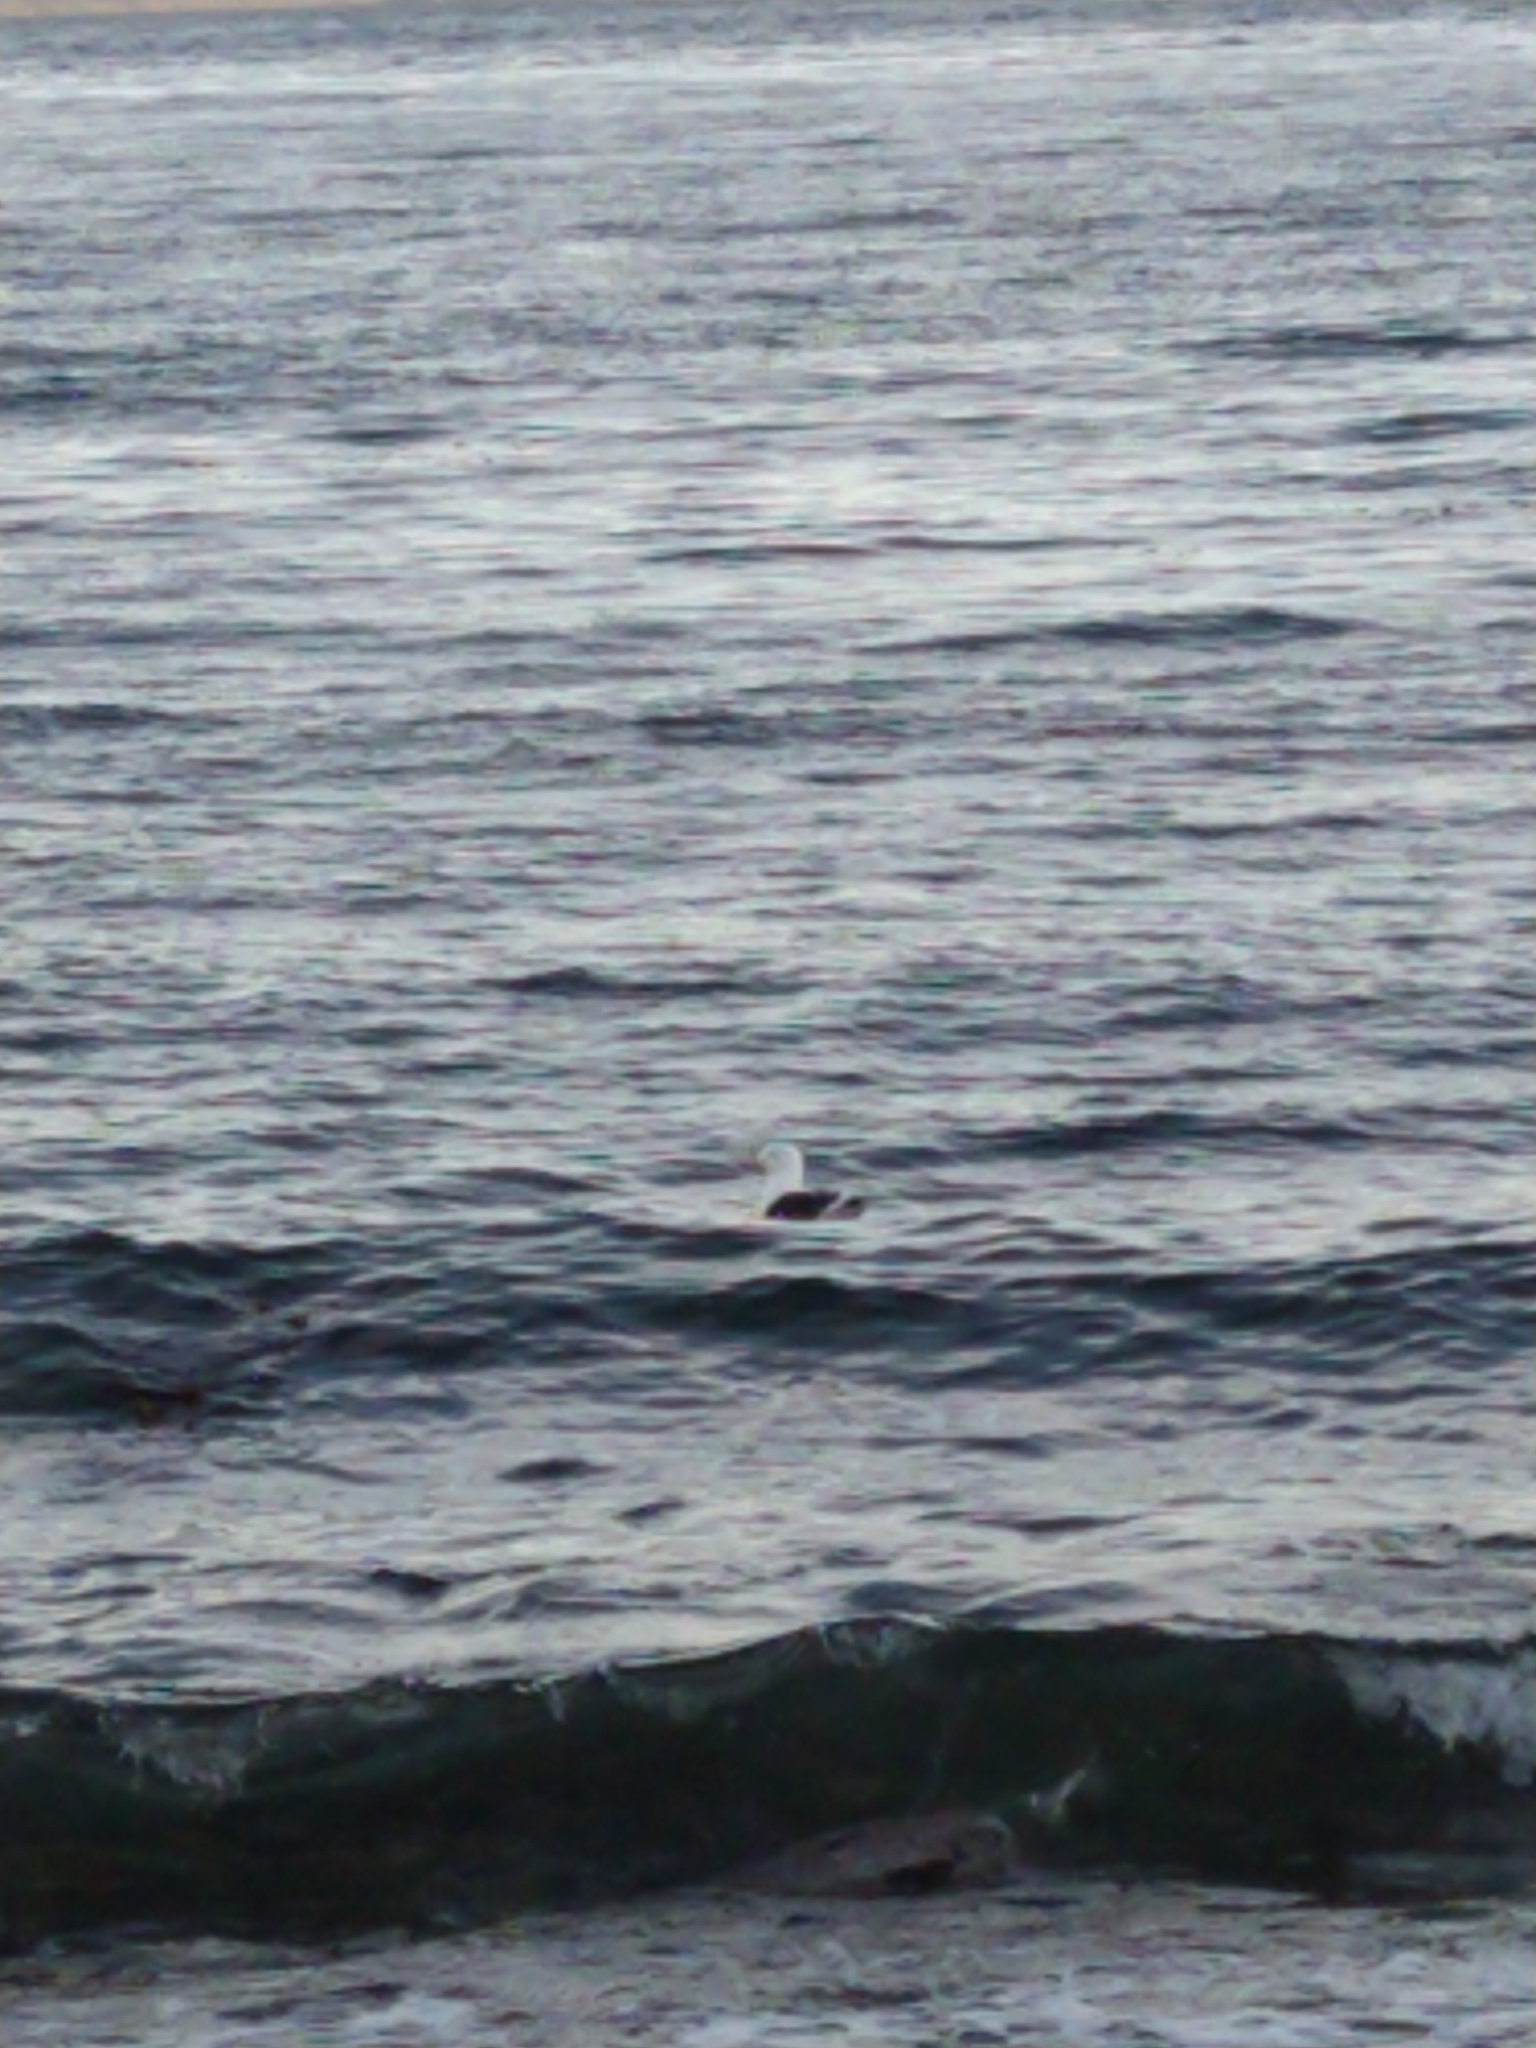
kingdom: Animalia
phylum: Chordata
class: Aves
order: Charadriiformes
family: Laridae
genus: Larus
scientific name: Larus dominicanus
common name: Kelp gull
